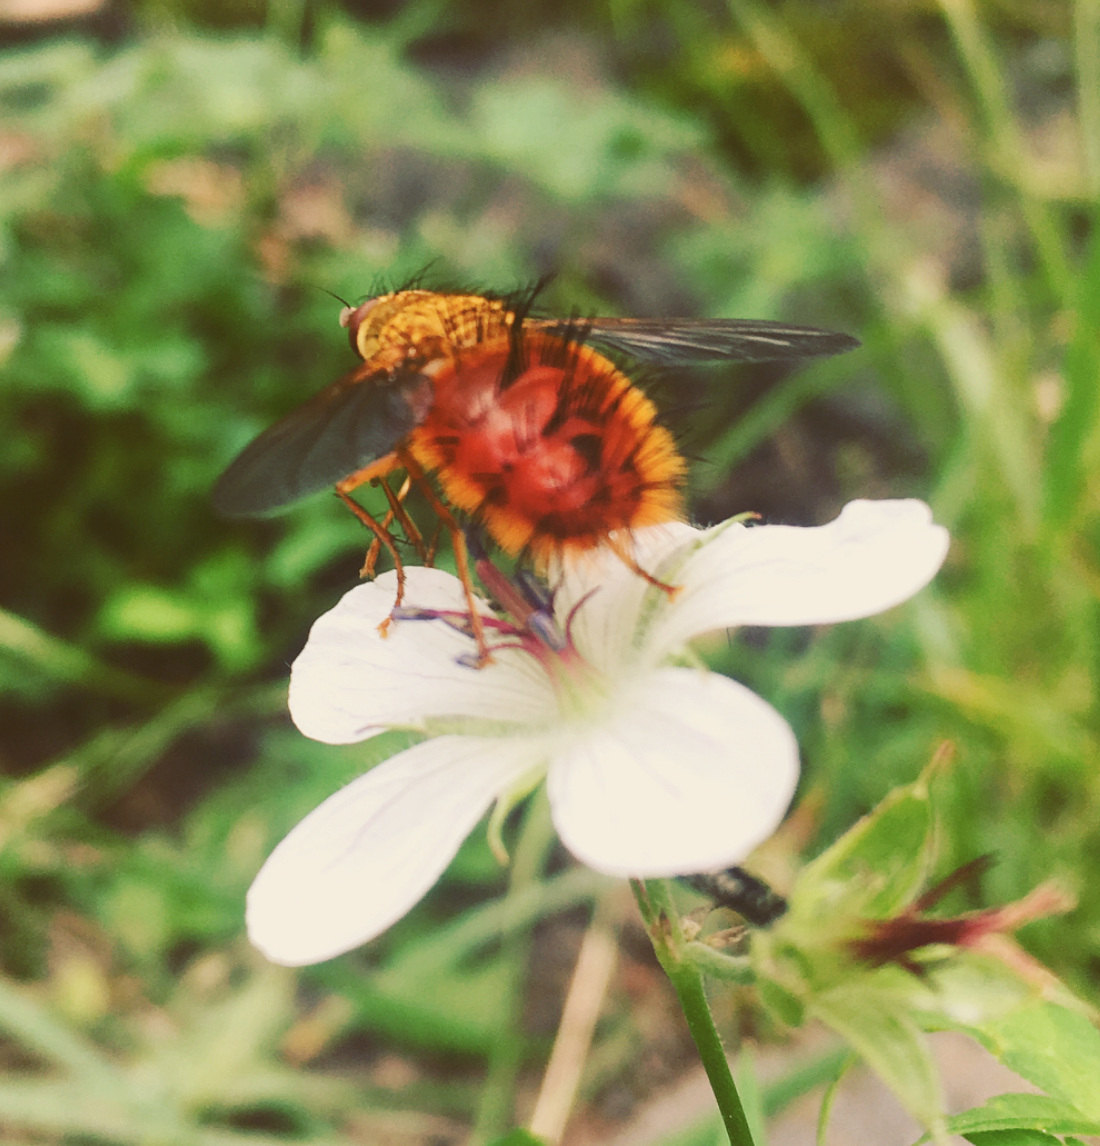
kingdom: Animalia
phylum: Arthropoda
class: Insecta
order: Diptera
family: Tachinidae
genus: Adejeania
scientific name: Adejeania vexatrix
